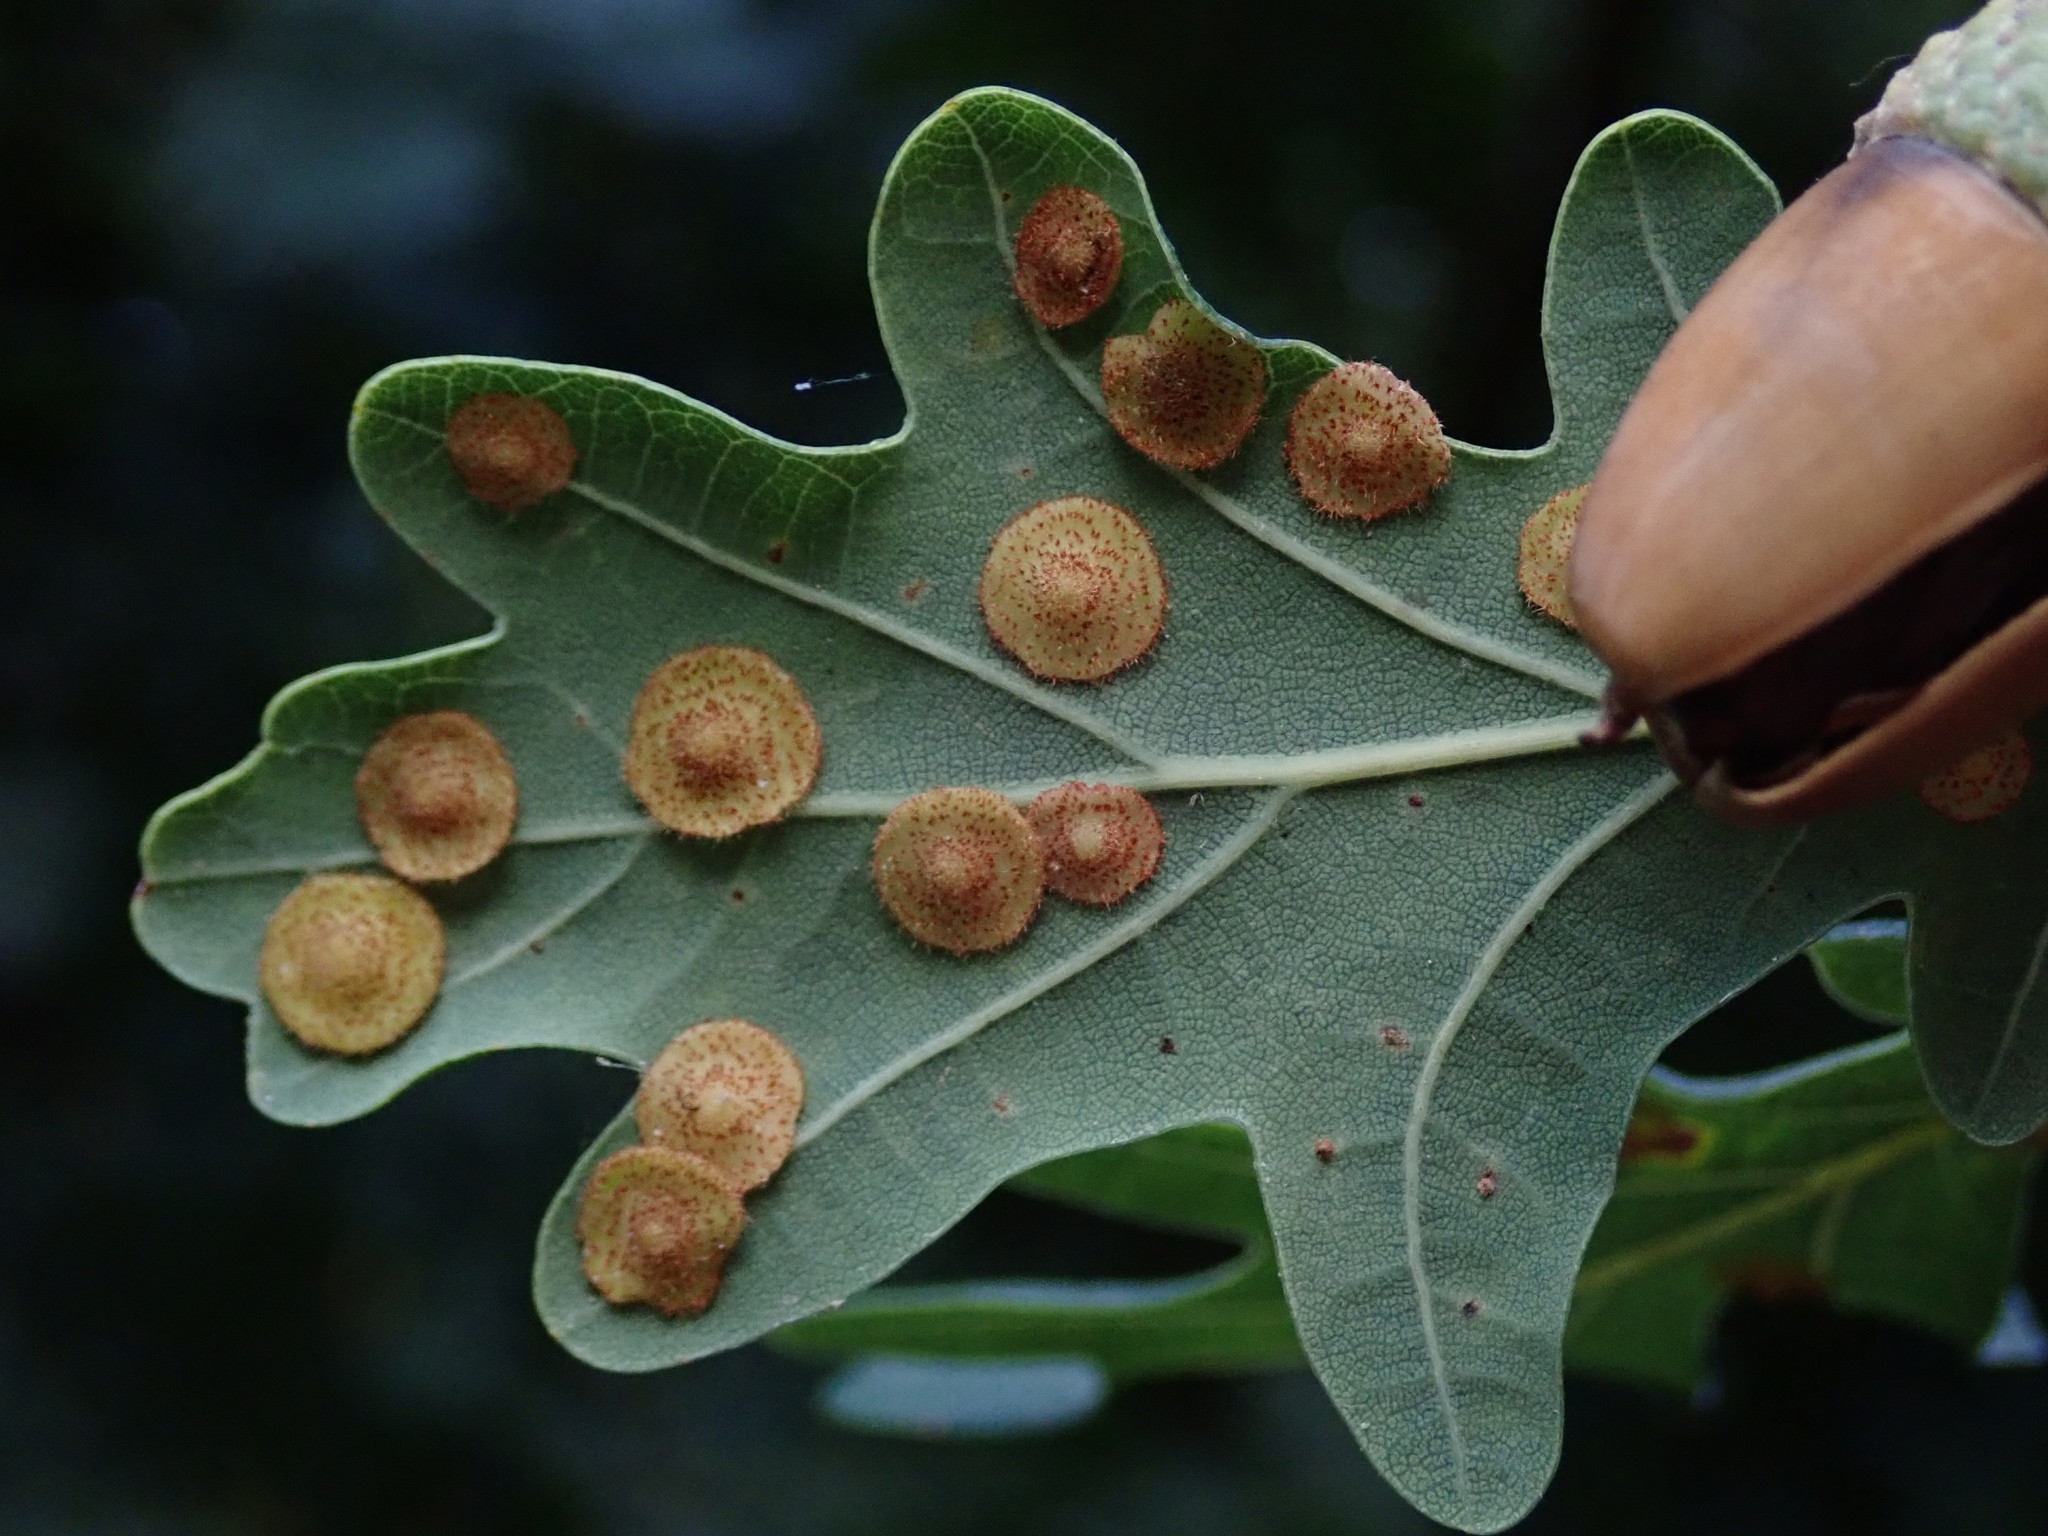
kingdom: Animalia
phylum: Arthropoda
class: Insecta
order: Hymenoptera
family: Cynipidae
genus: Neuroterus
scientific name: Neuroterus quercusbaccarum
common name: Common spangle gall
